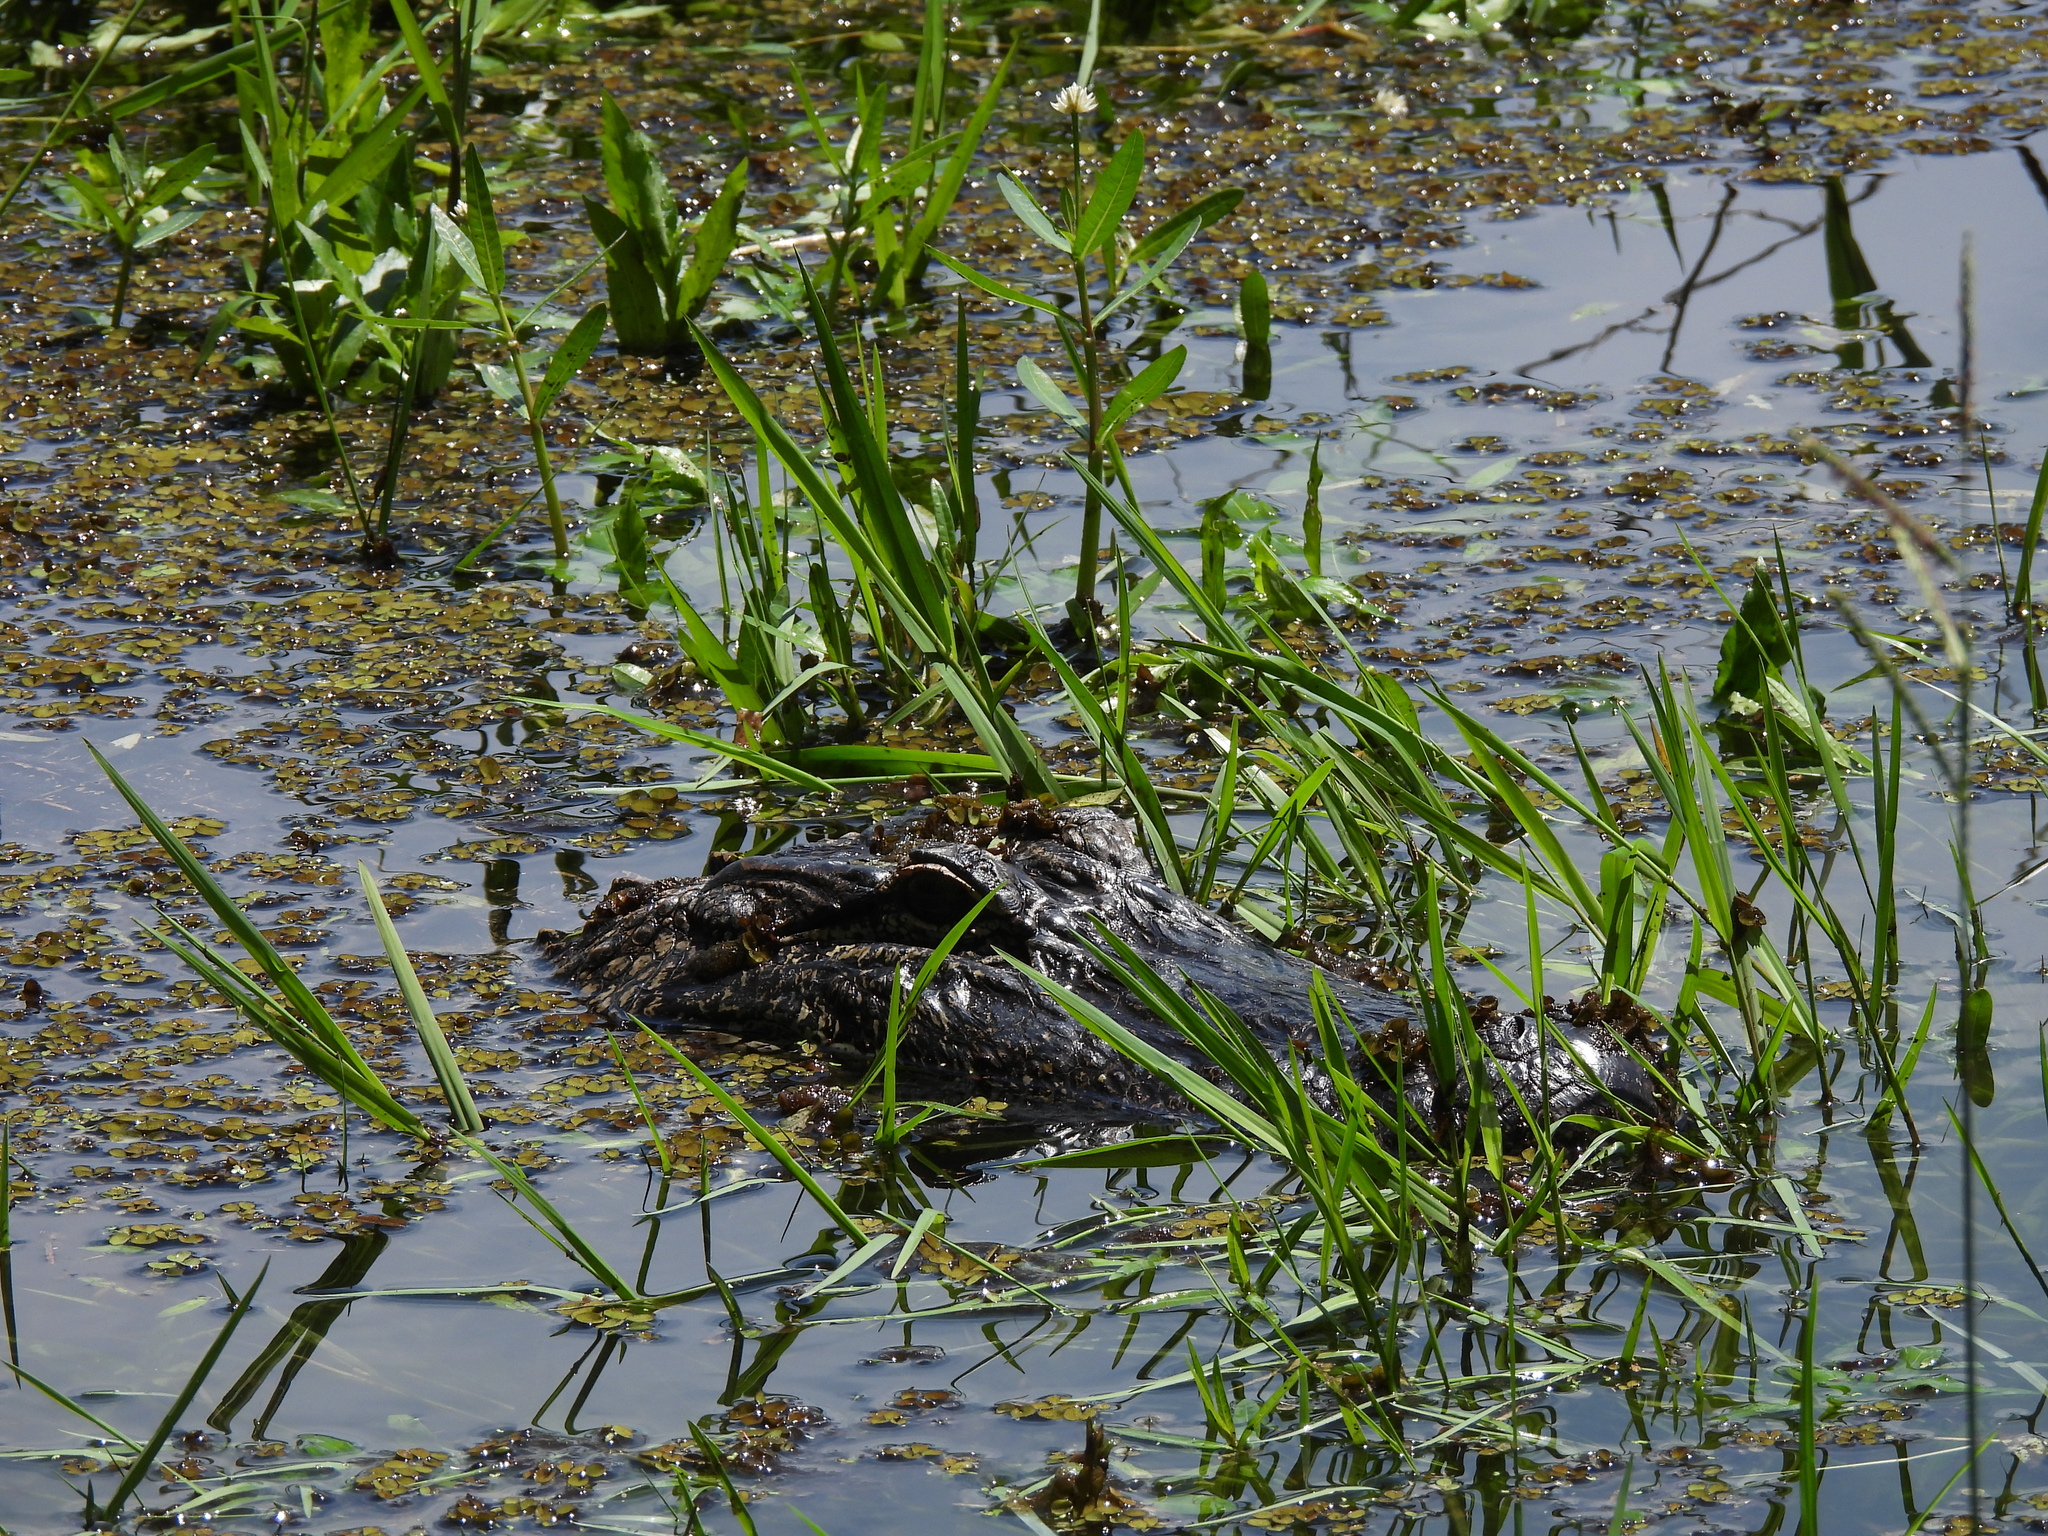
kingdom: Animalia
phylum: Chordata
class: Crocodylia
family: Alligatoridae
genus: Alligator
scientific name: Alligator mississippiensis
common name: American alligator
